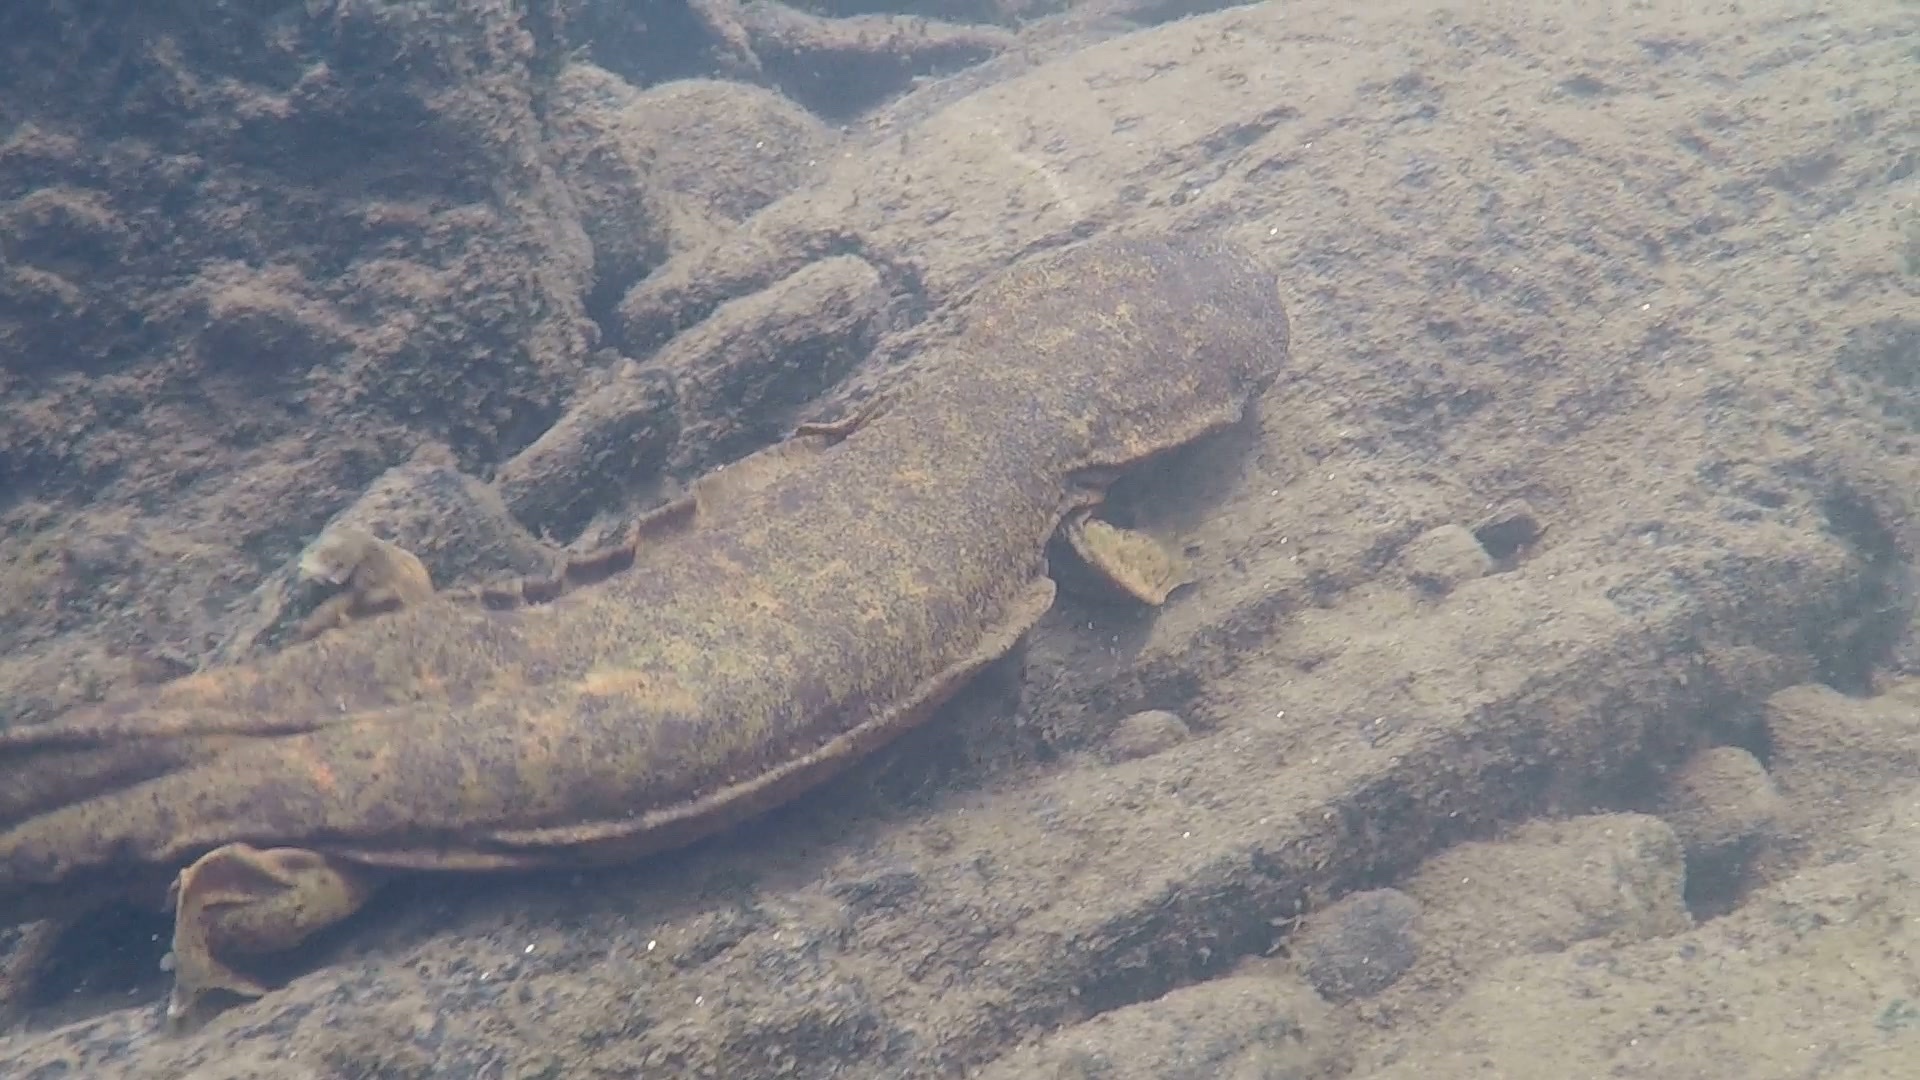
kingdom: Animalia
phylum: Chordata
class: Amphibia
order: Caudata
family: Cryptobranchidae
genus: Cryptobranchus
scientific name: Cryptobranchus alleganiensis
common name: Hellbender
